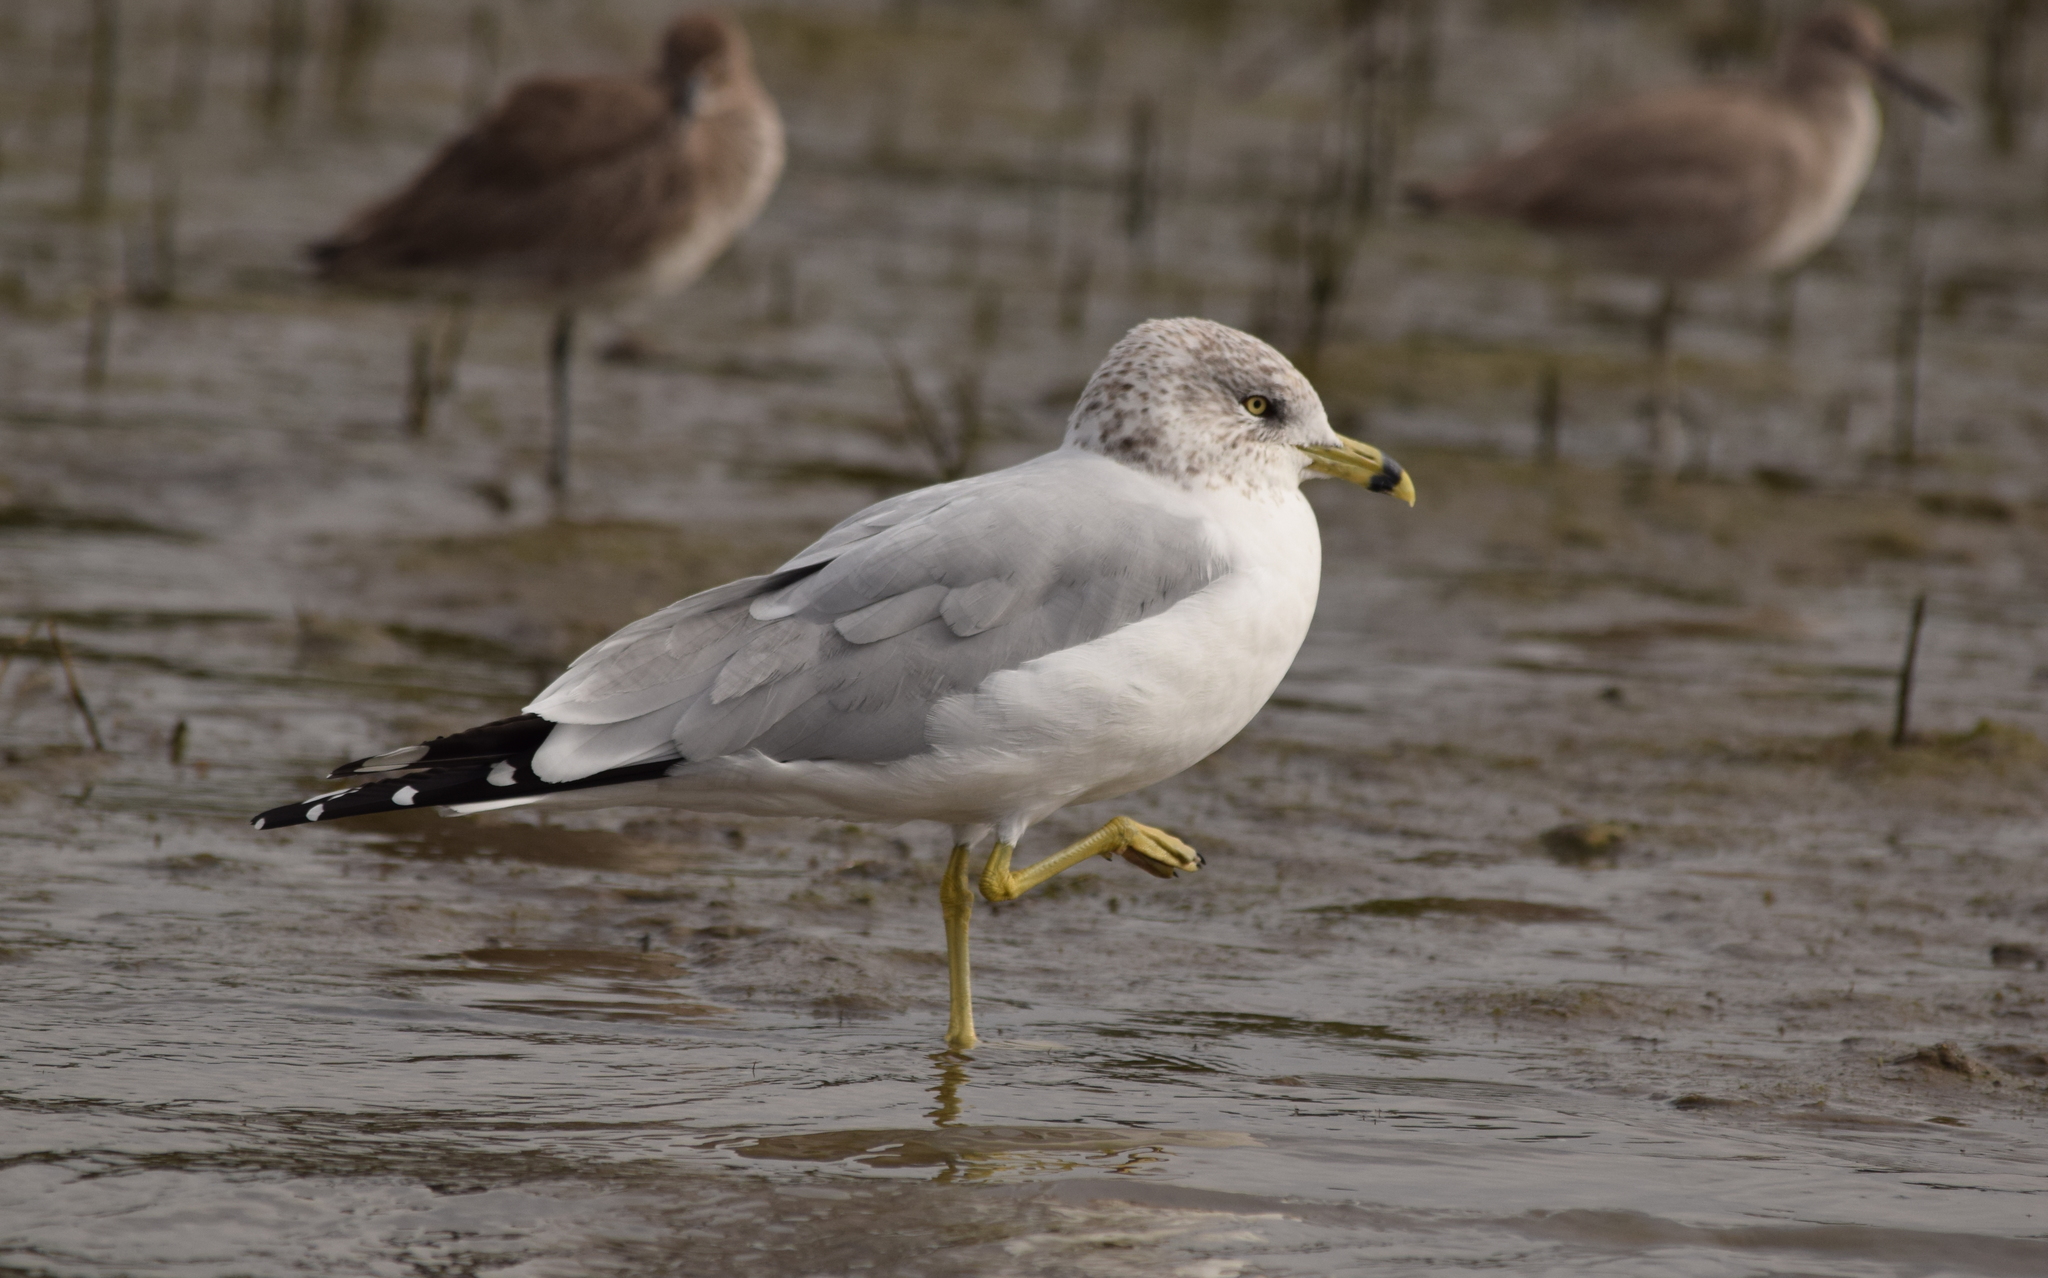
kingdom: Animalia
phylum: Chordata
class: Aves
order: Charadriiformes
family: Laridae
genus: Larus
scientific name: Larus delawarensis
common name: Ring-billed gull
